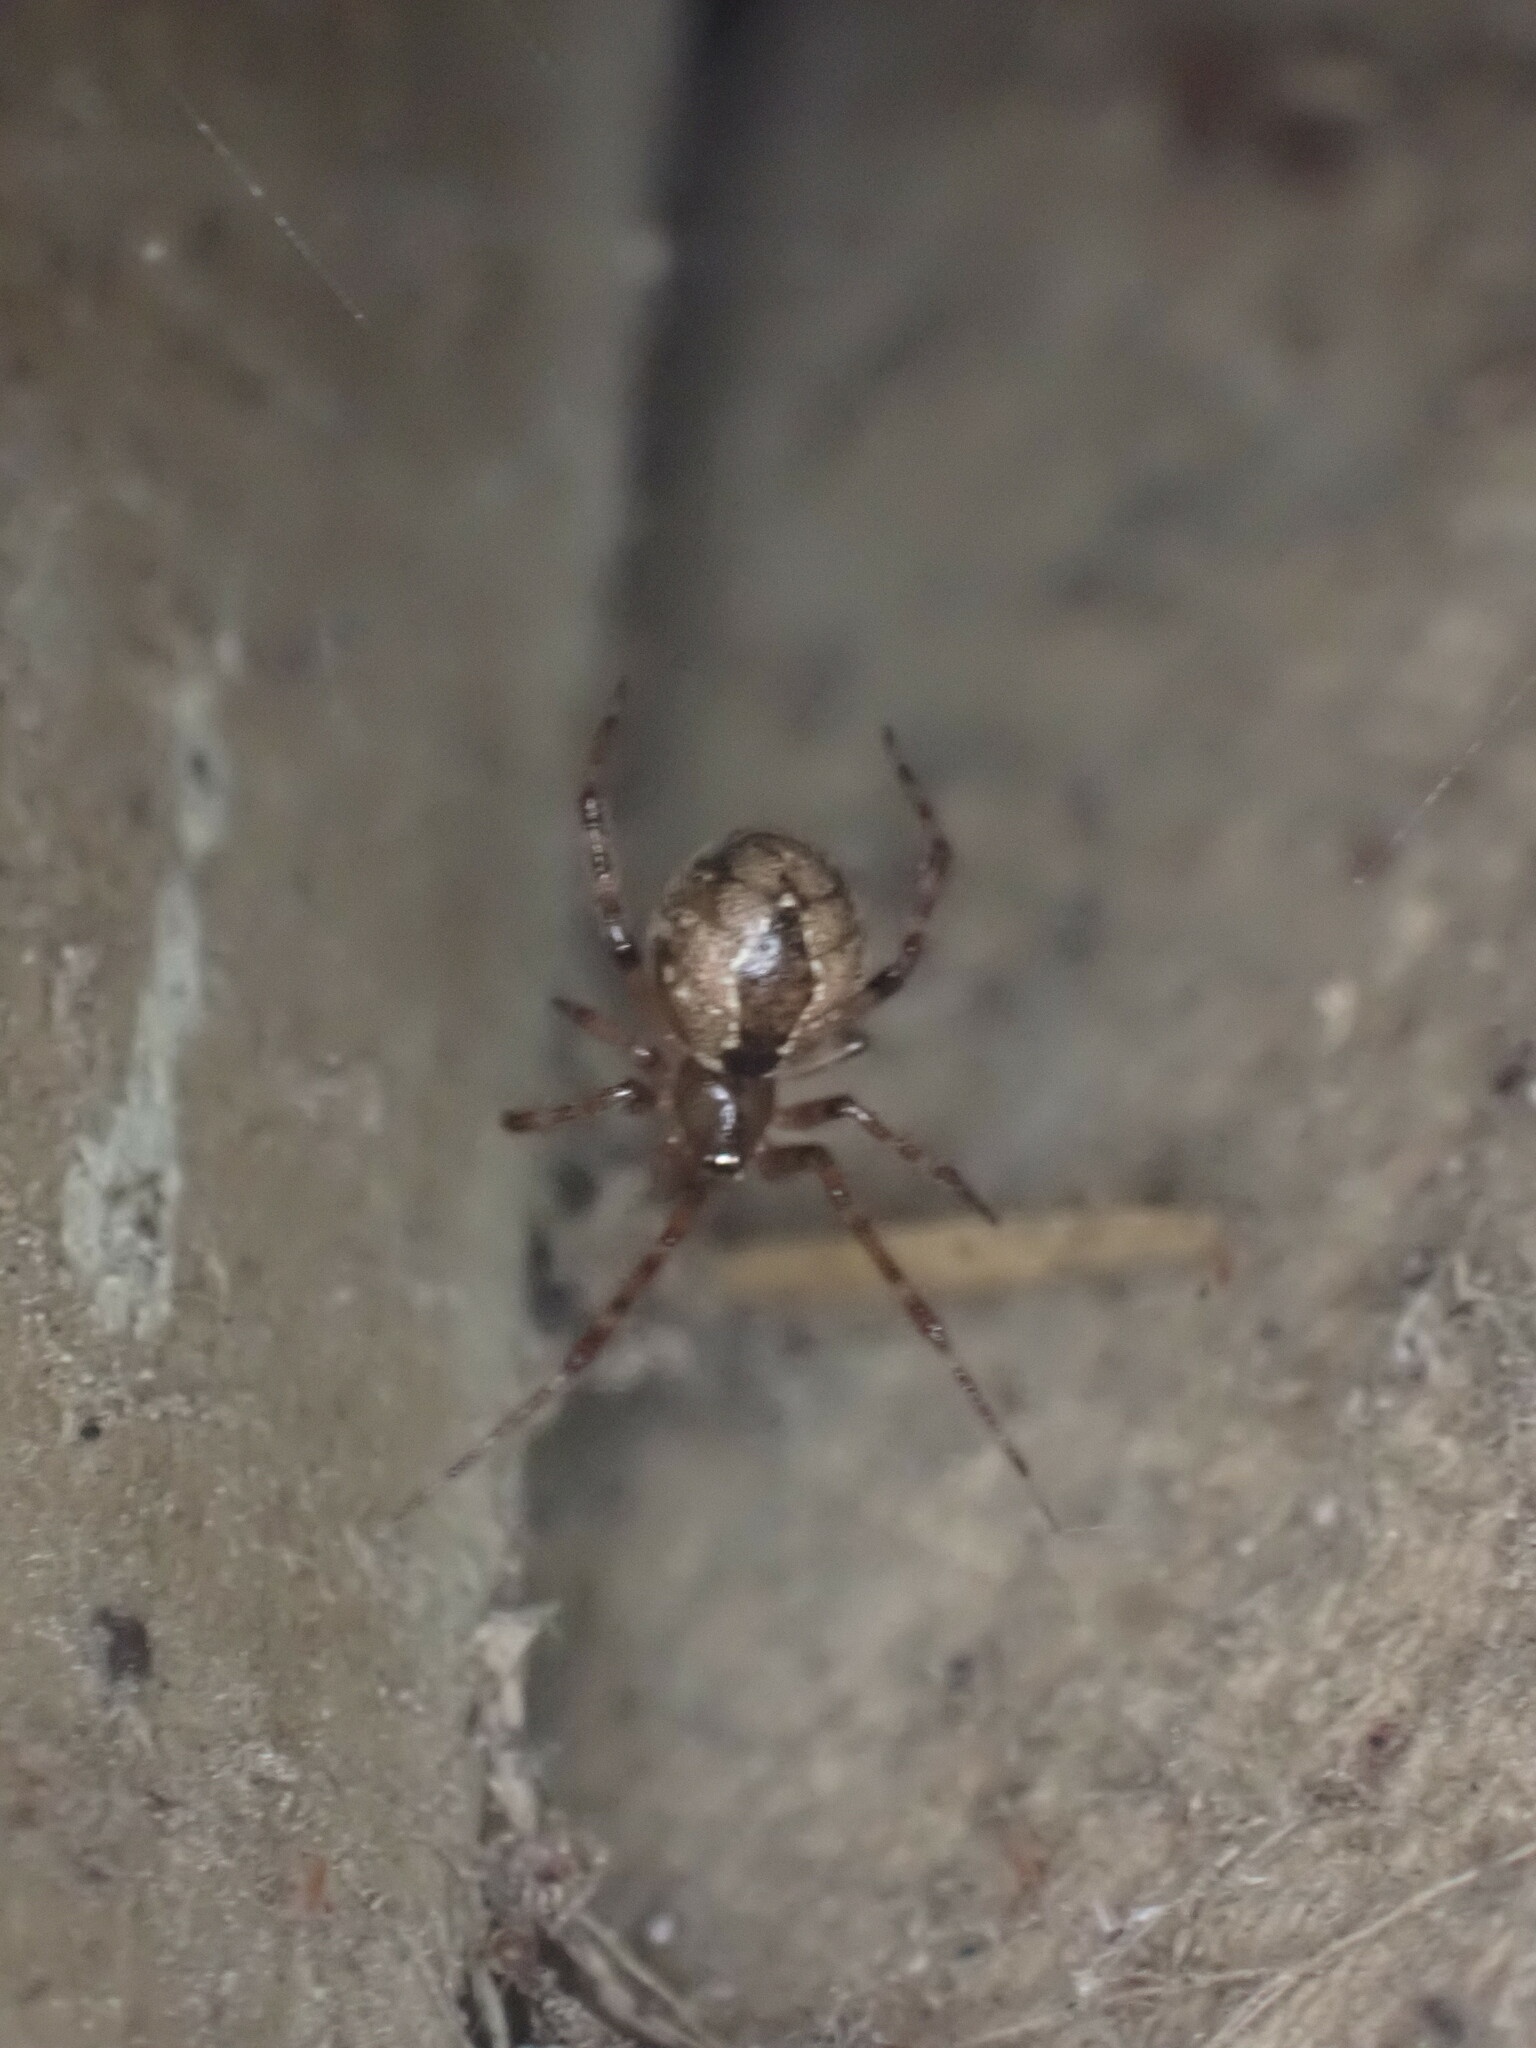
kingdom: Animalia
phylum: Arthropoda
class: Arachnida
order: Araneae
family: Theridiidae
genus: Cryptachaea
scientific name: Cryptachaea veruculata
